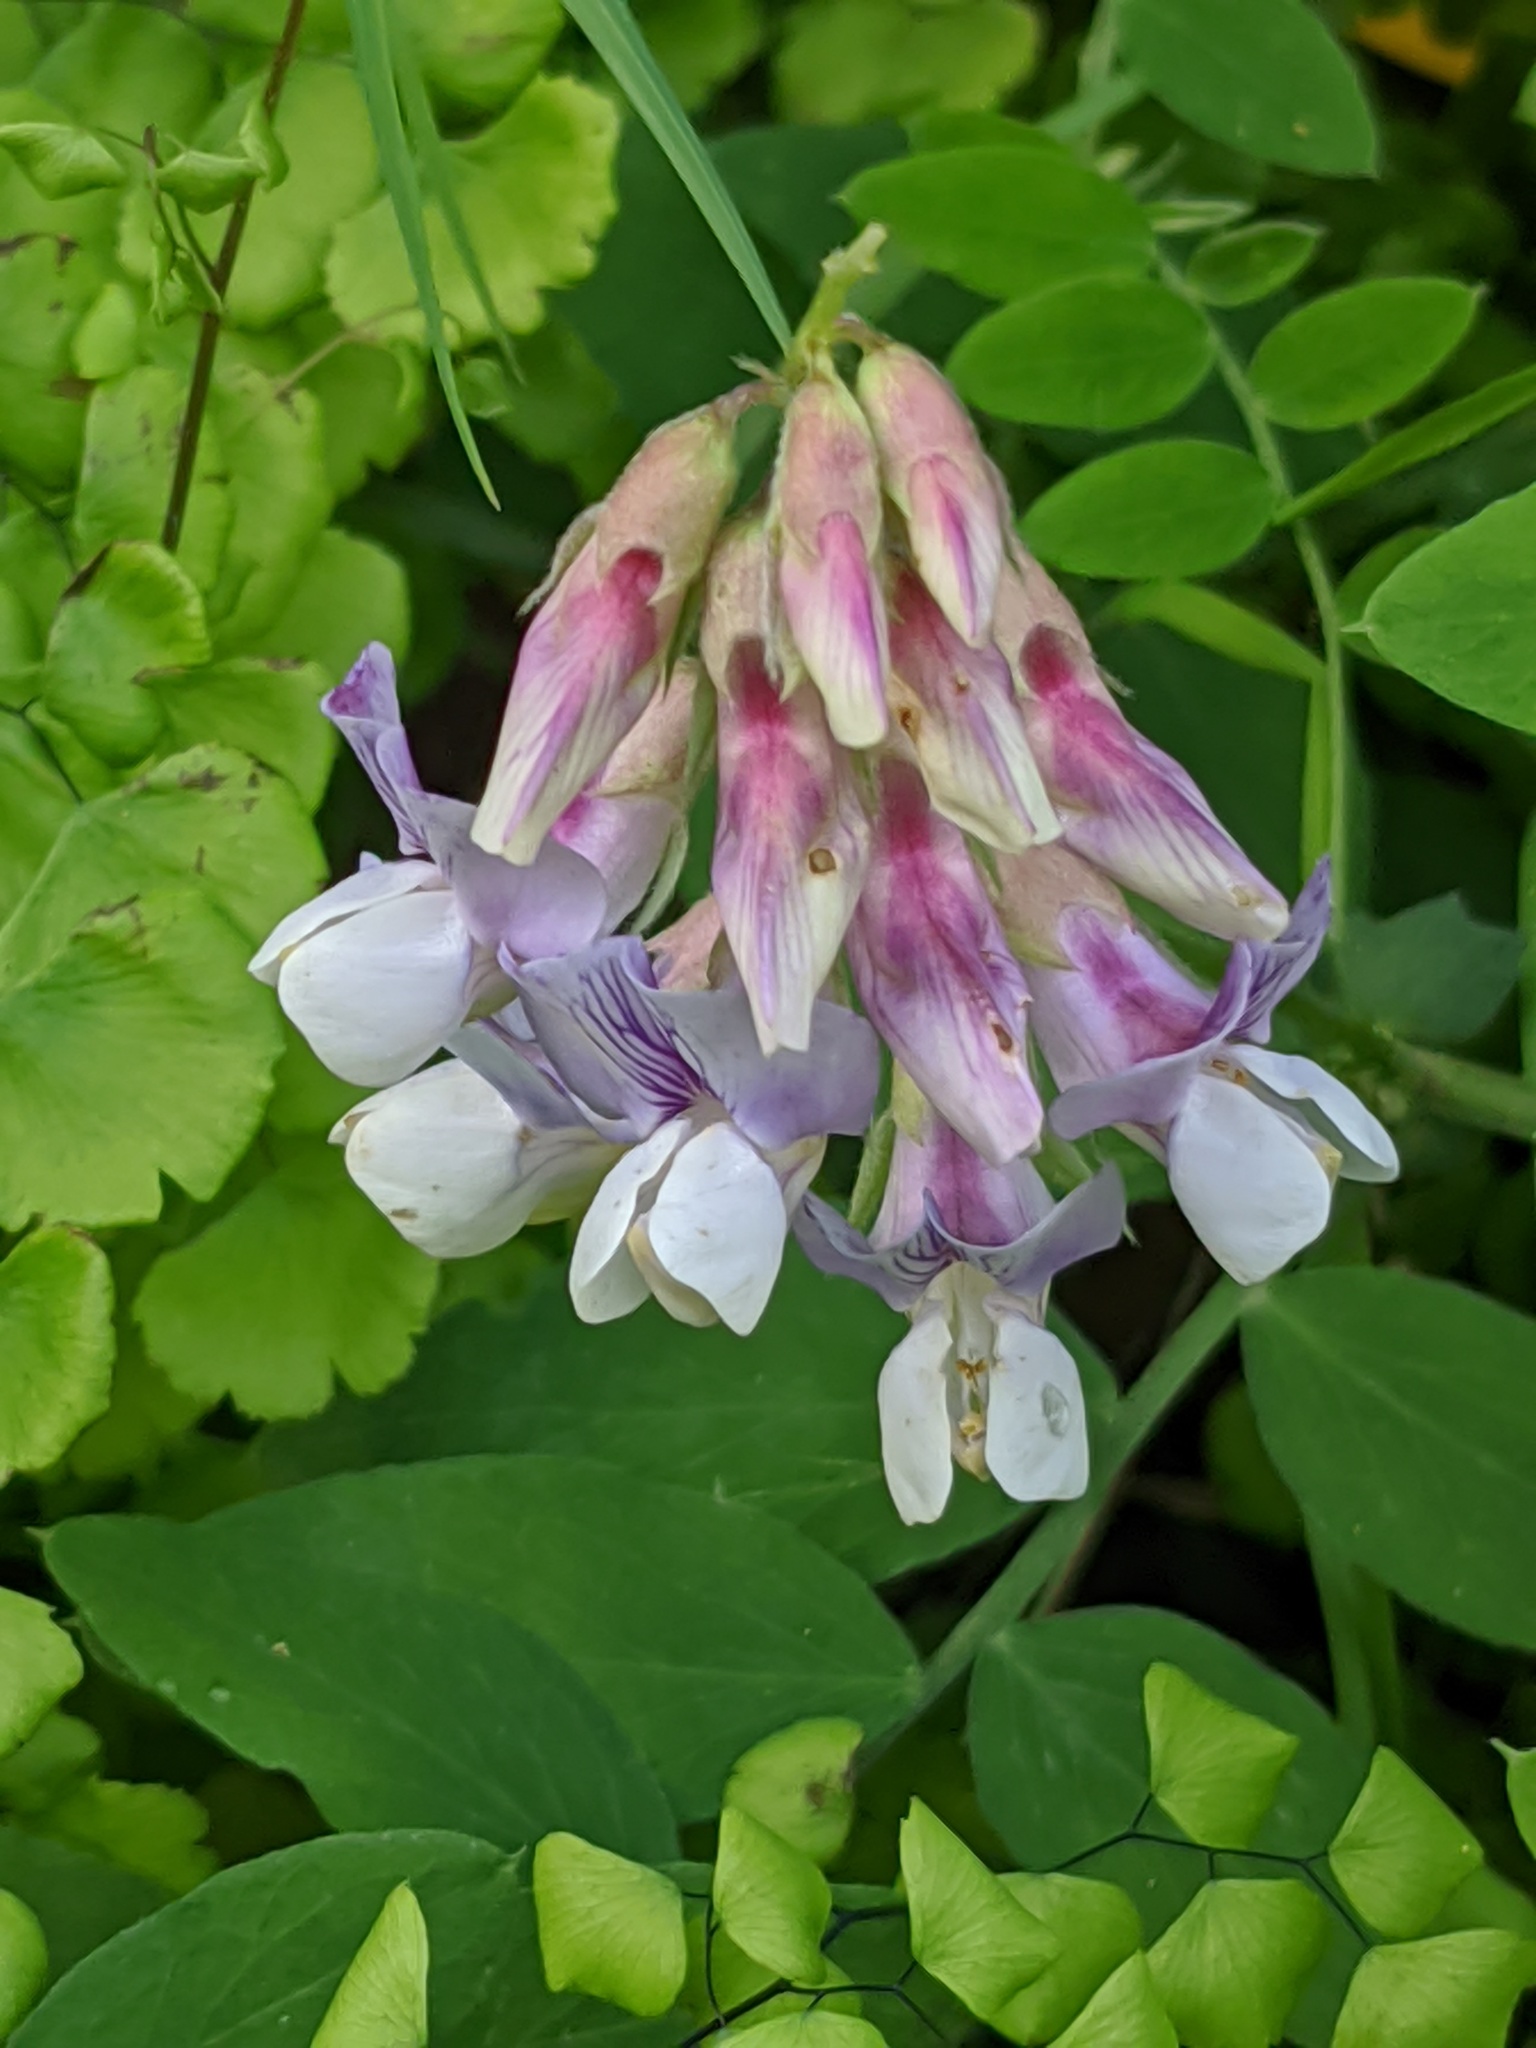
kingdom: Plantae
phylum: Tracheophyta
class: Magnoliopsida
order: Fabales
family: Fabaceae
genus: Lathyrus
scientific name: Lathyrus vestitus
